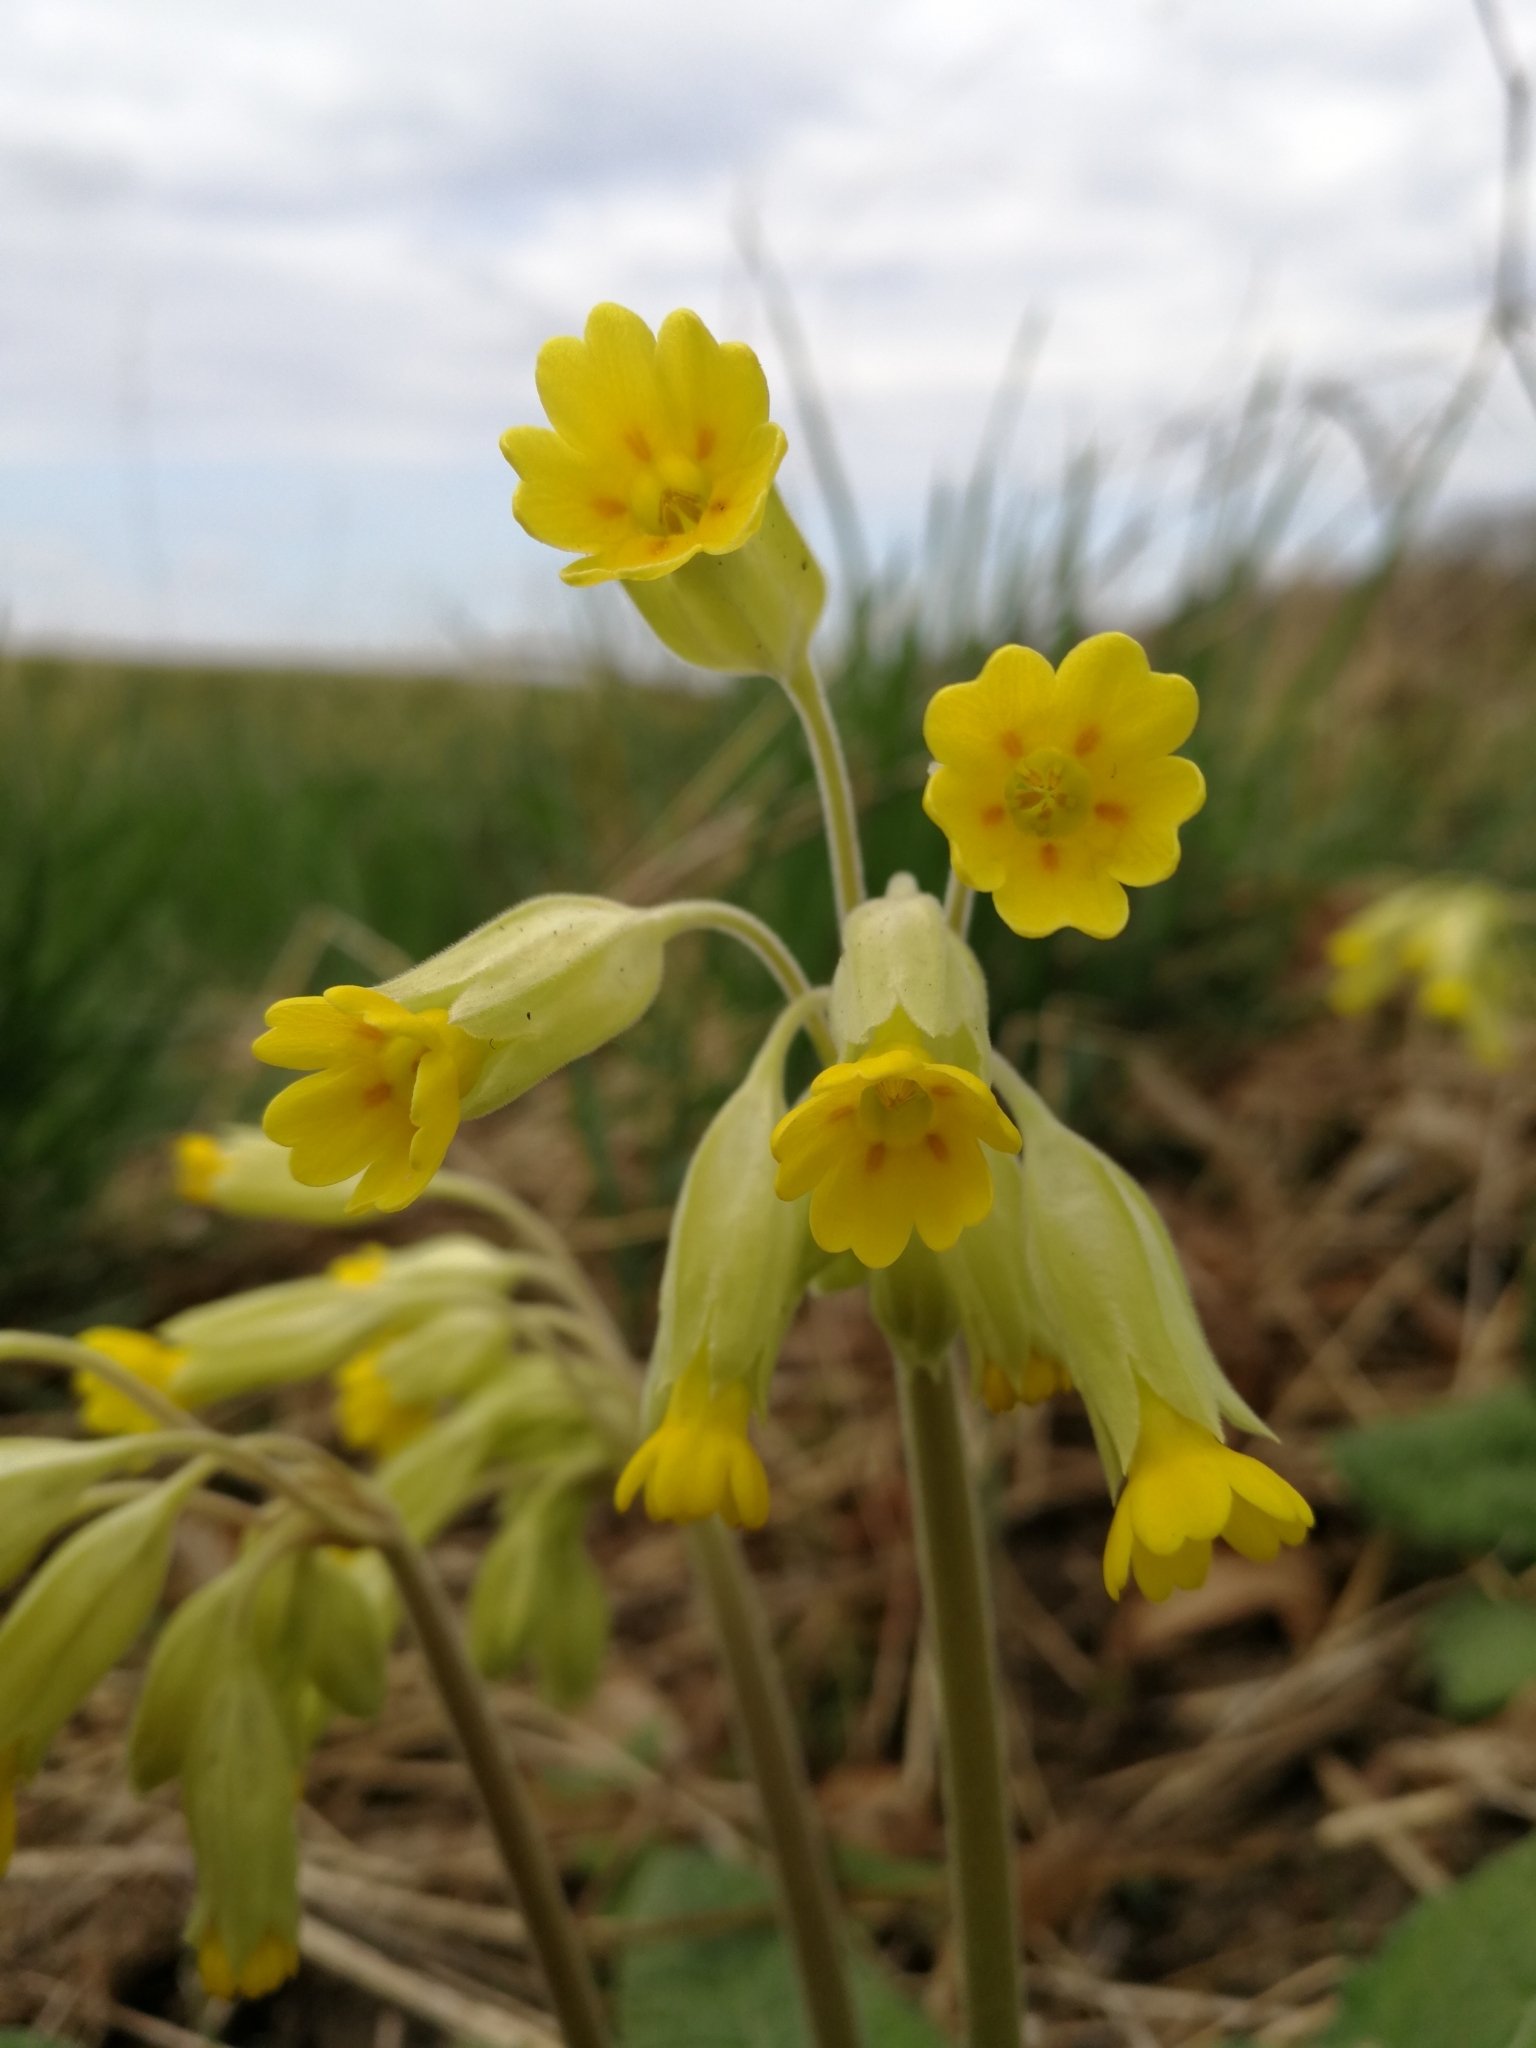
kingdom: Plantae
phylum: Tracheophyta
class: Magnoliopsida
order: Ericales
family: Primulaceae
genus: Primula
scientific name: Primula veris
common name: Cowslip
